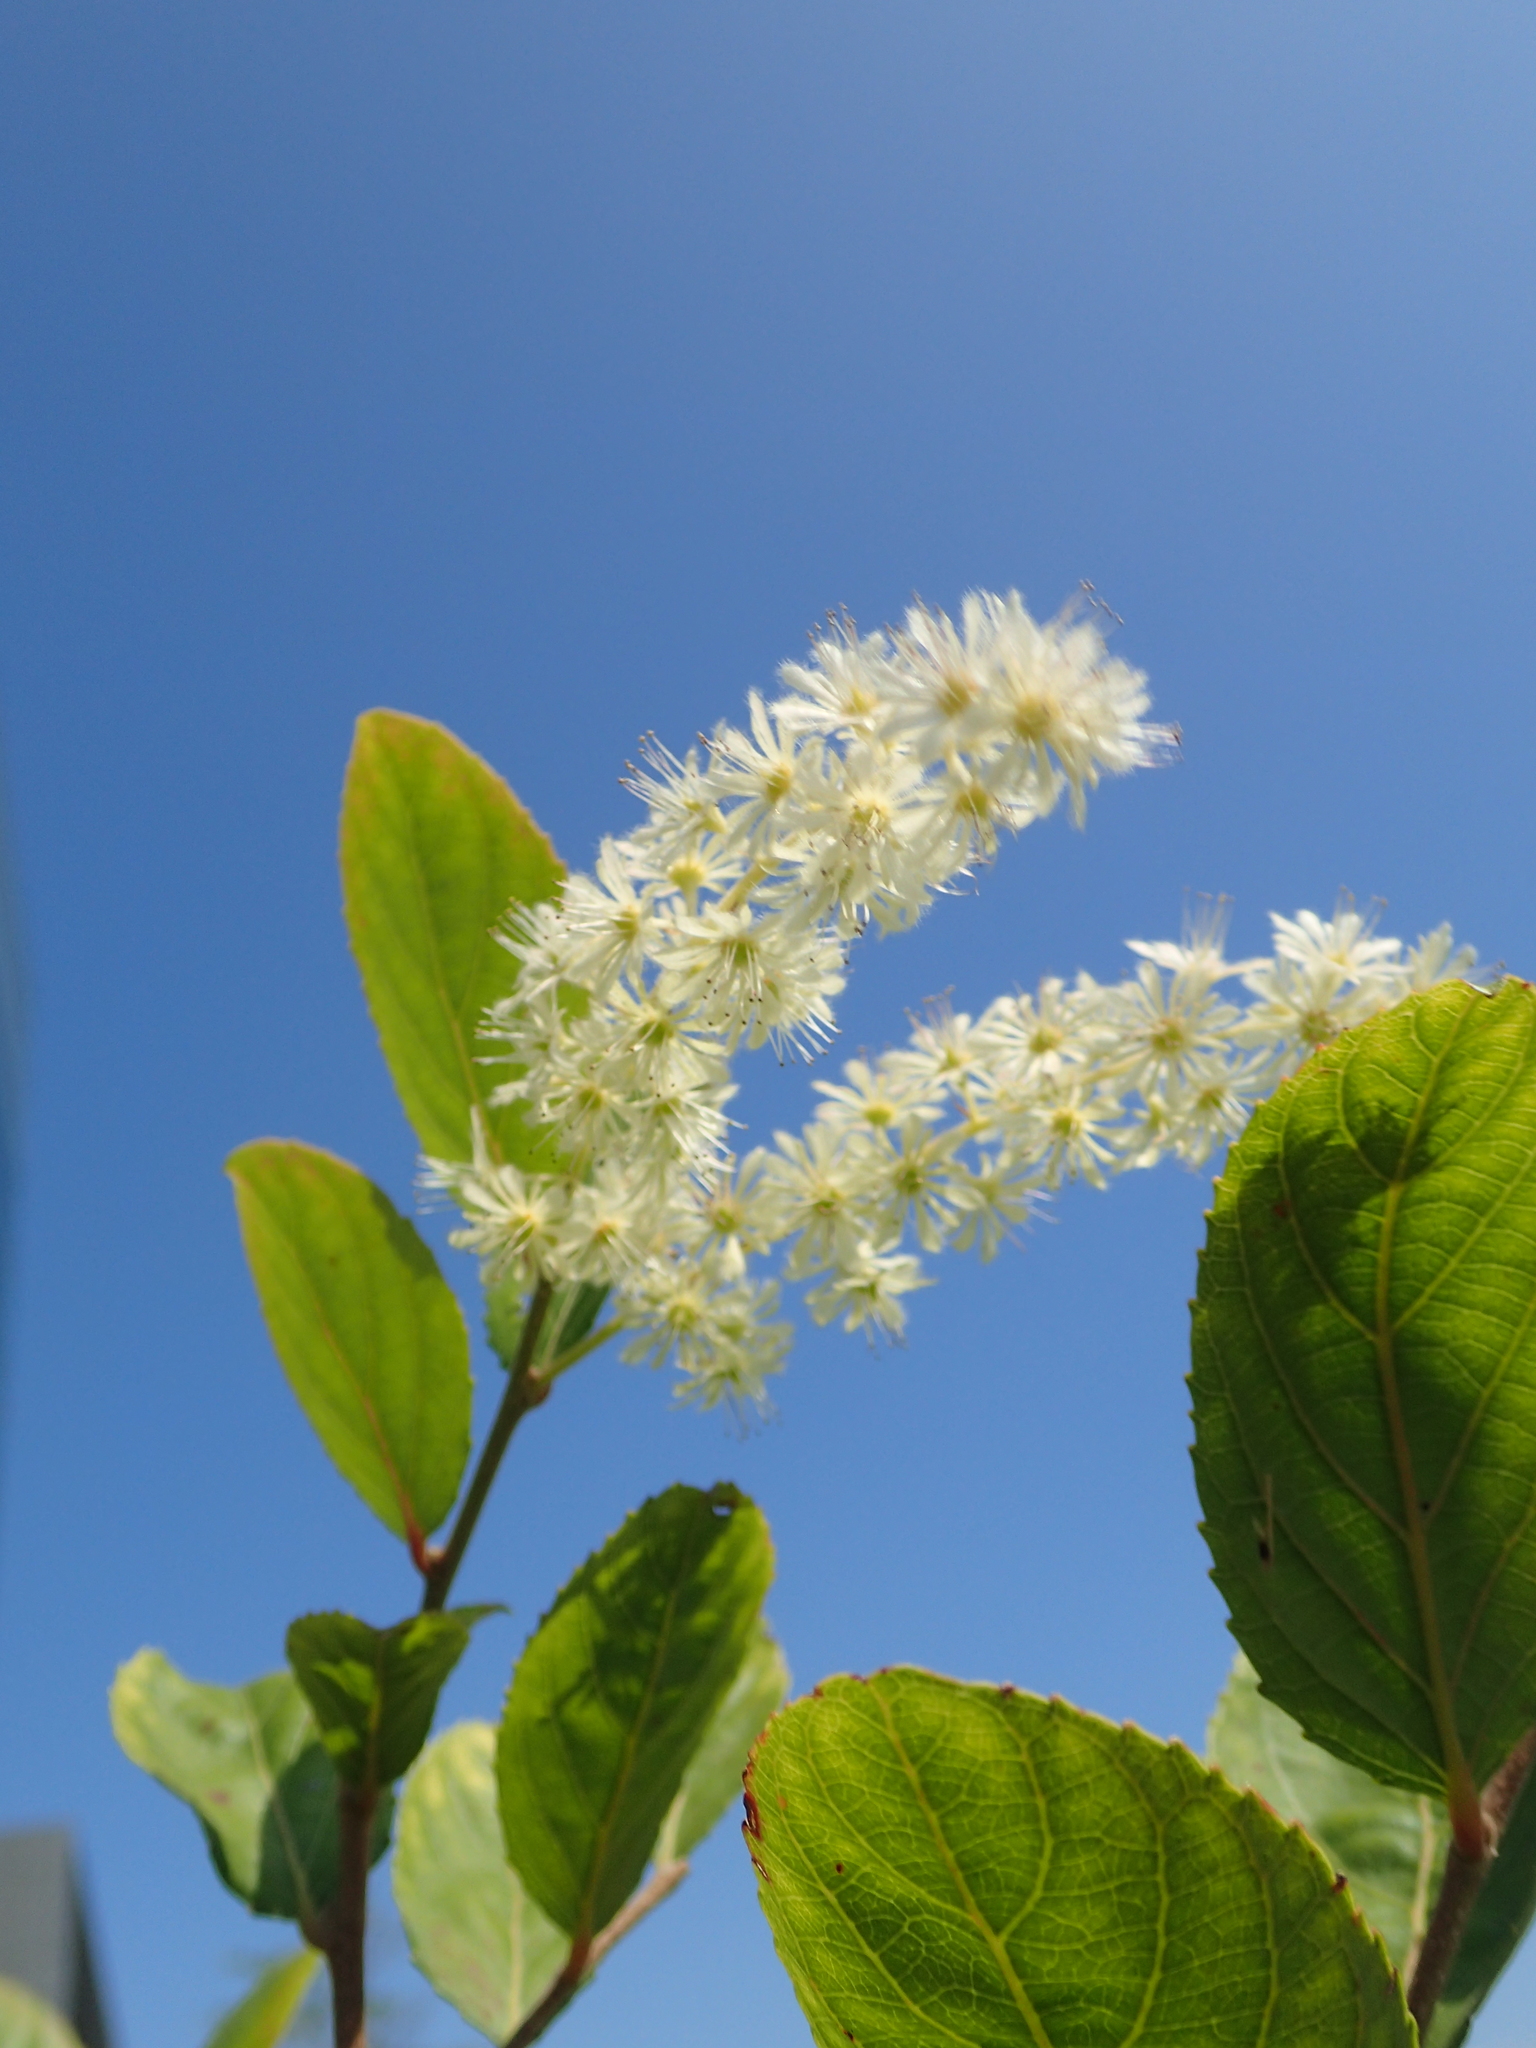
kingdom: Plantae
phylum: Tracheophyta
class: Magnoliopsida
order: Malpighiales
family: Salicaceae
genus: Homalium
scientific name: Homalium cochinchinensis
